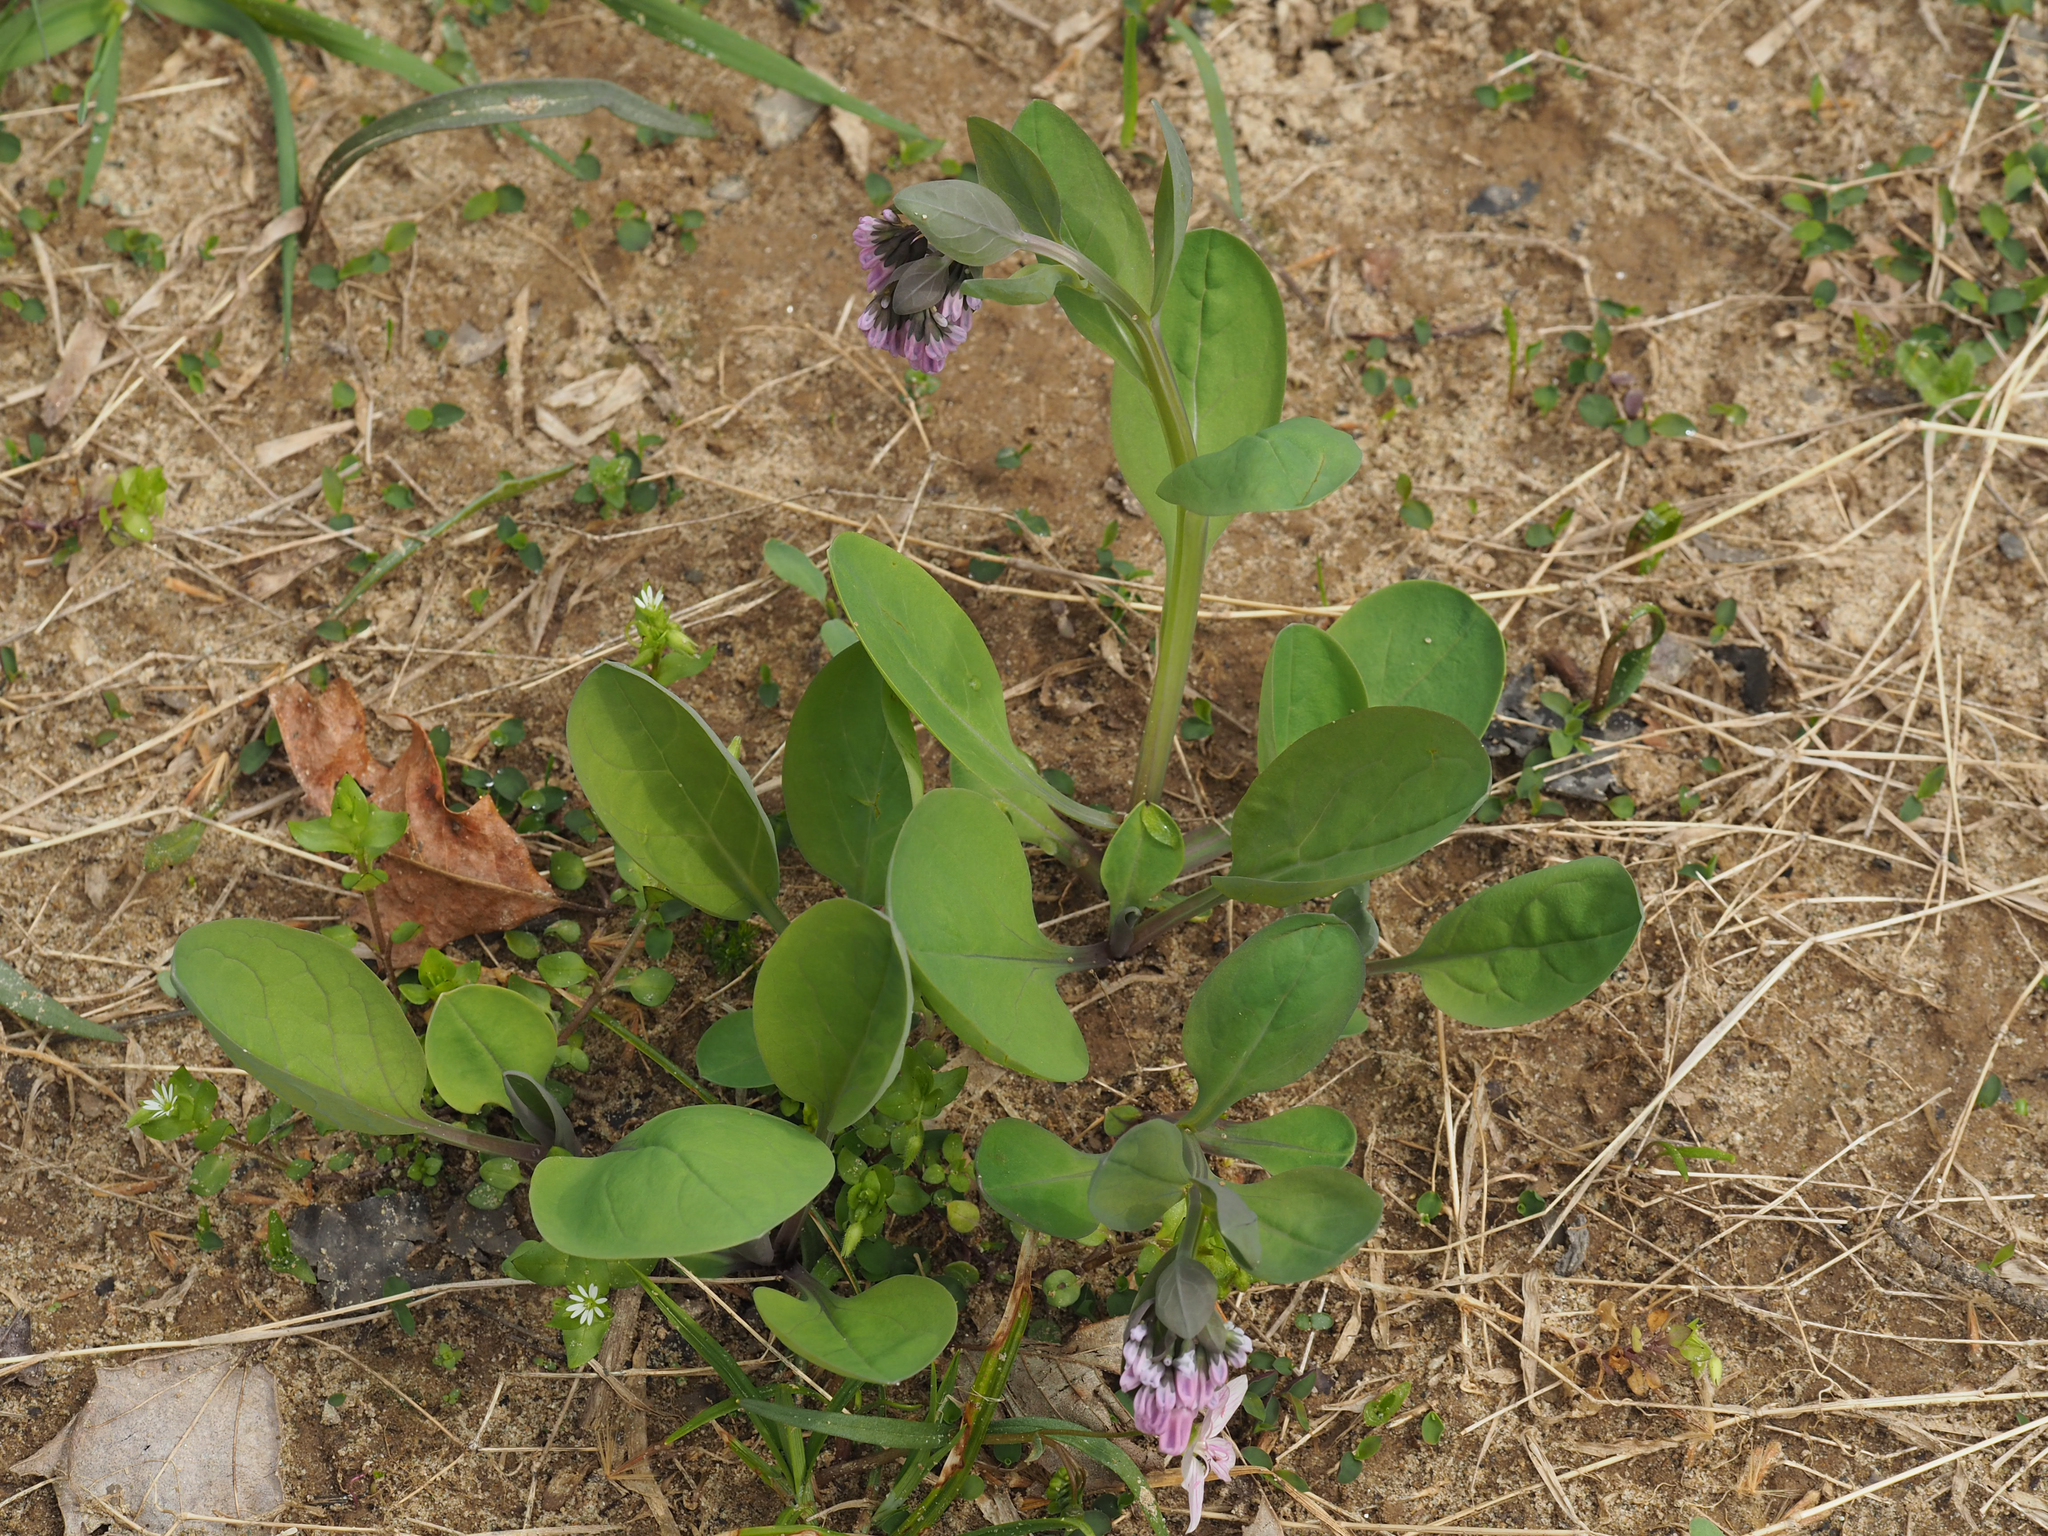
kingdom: Plantae
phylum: Tracheophyta
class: Magnoliopsida
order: Boraginales
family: Boraginaceae
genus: Mertensia
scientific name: Mertensia virginica
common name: Virginia bluebells
